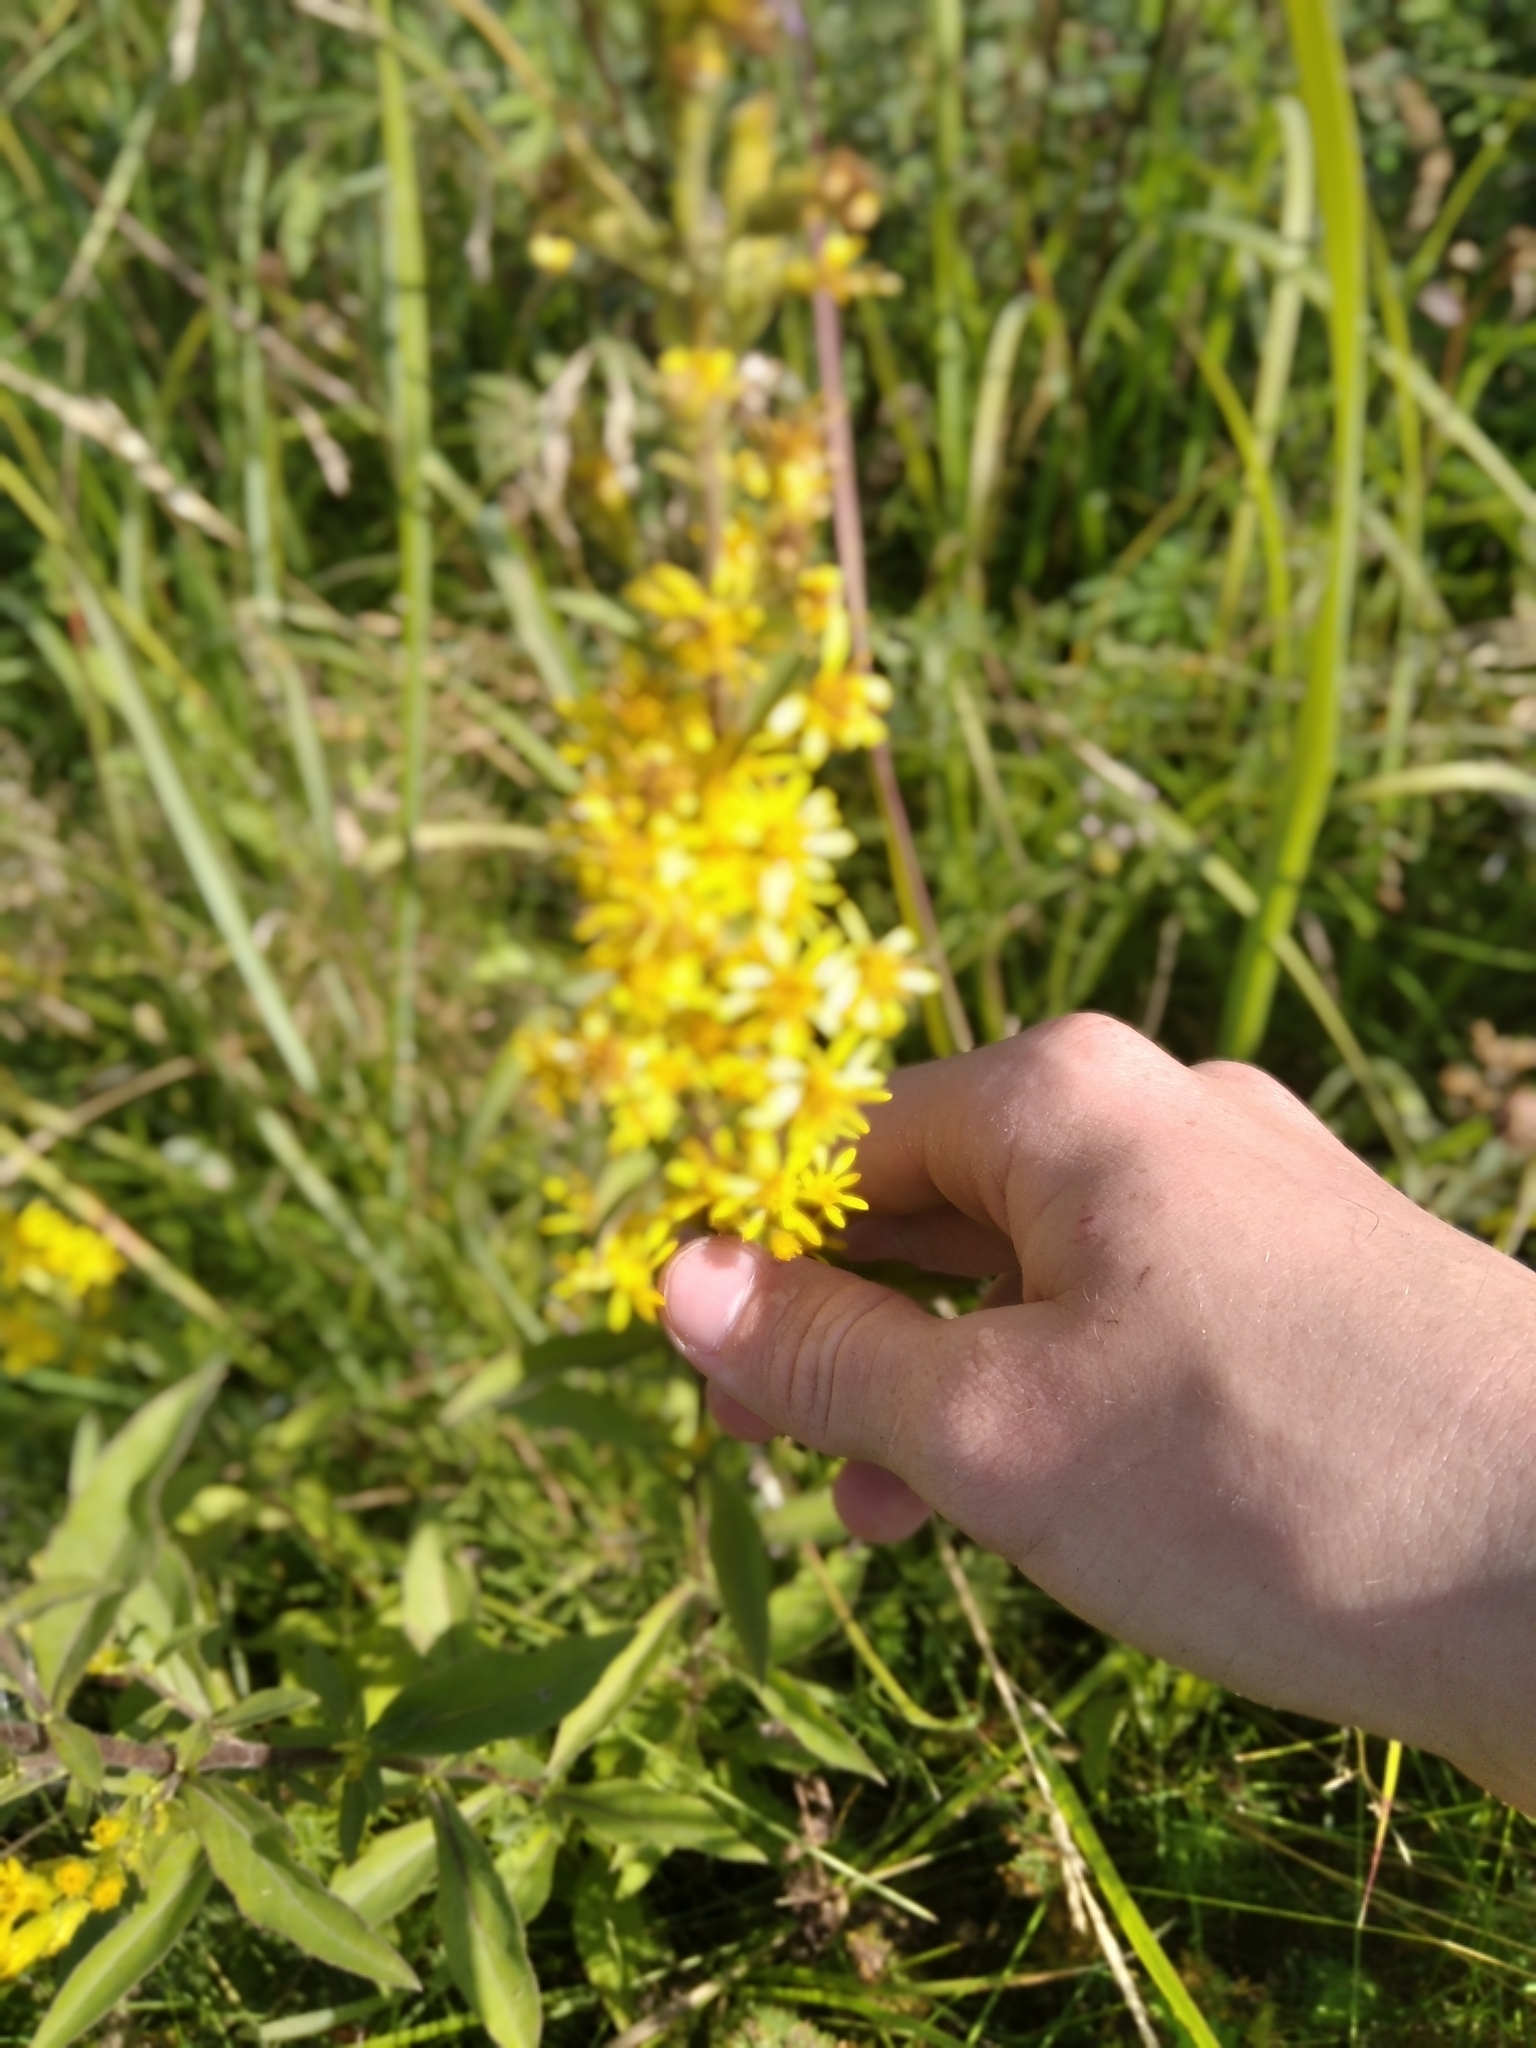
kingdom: Plantae
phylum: Tracheophyta
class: Magnoliopsida
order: Asterales
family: Asteraceae
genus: Solidago
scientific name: Solidago virgaurea
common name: Goldenrod
